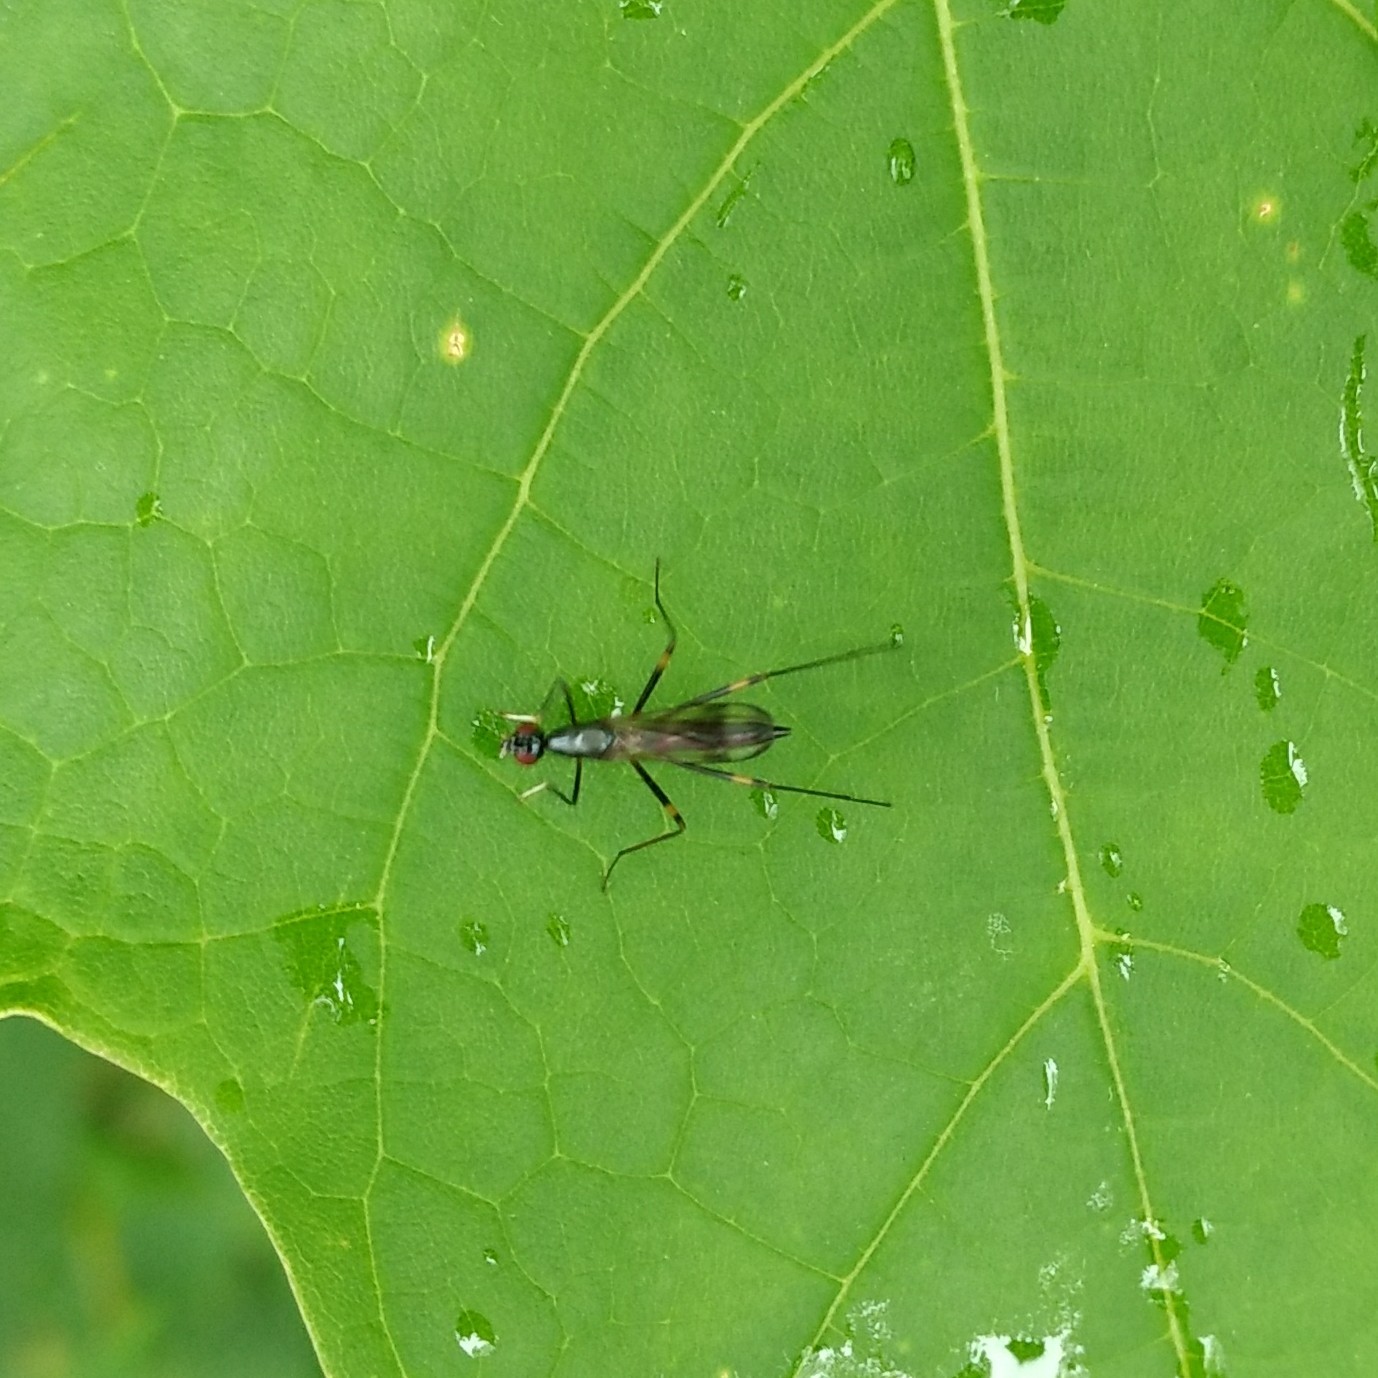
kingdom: Animalia
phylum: Arthropoda
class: Insecta
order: Diptera
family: Micropezidae
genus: Rainieria
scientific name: Rainieria antennaepes
